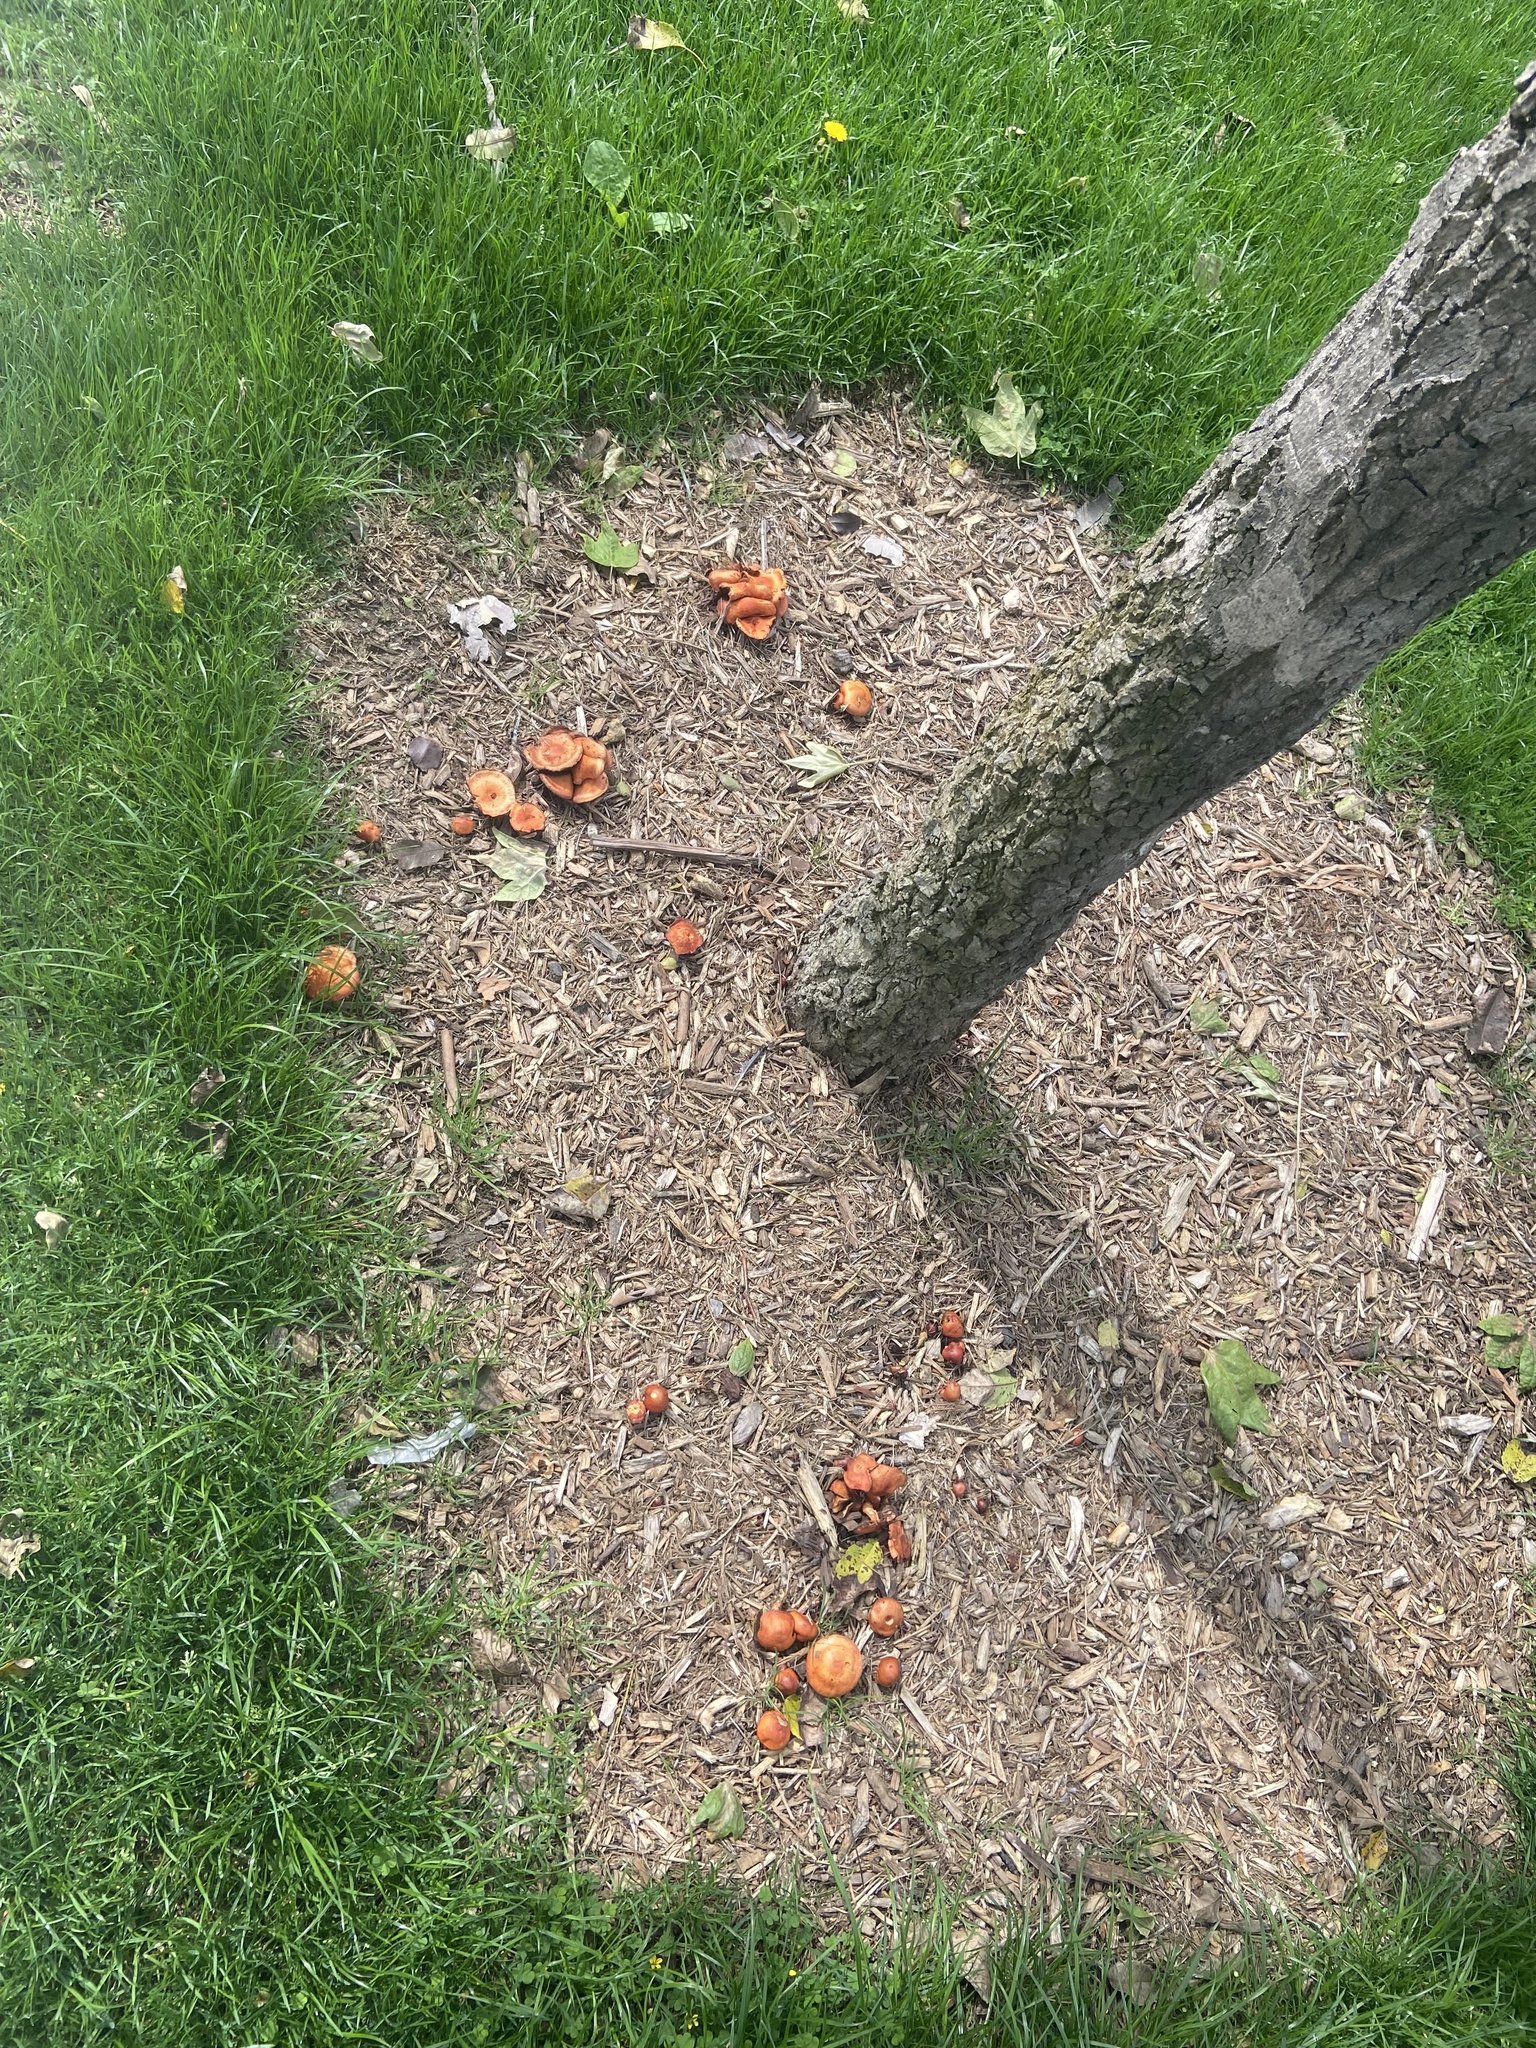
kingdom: Fungi
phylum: Basidiomycota
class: Agaricomycetes
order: Agaricales
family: Strophariaceae
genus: Leratiomyces
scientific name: Leratiomyces ceres
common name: Redlead roundhead
